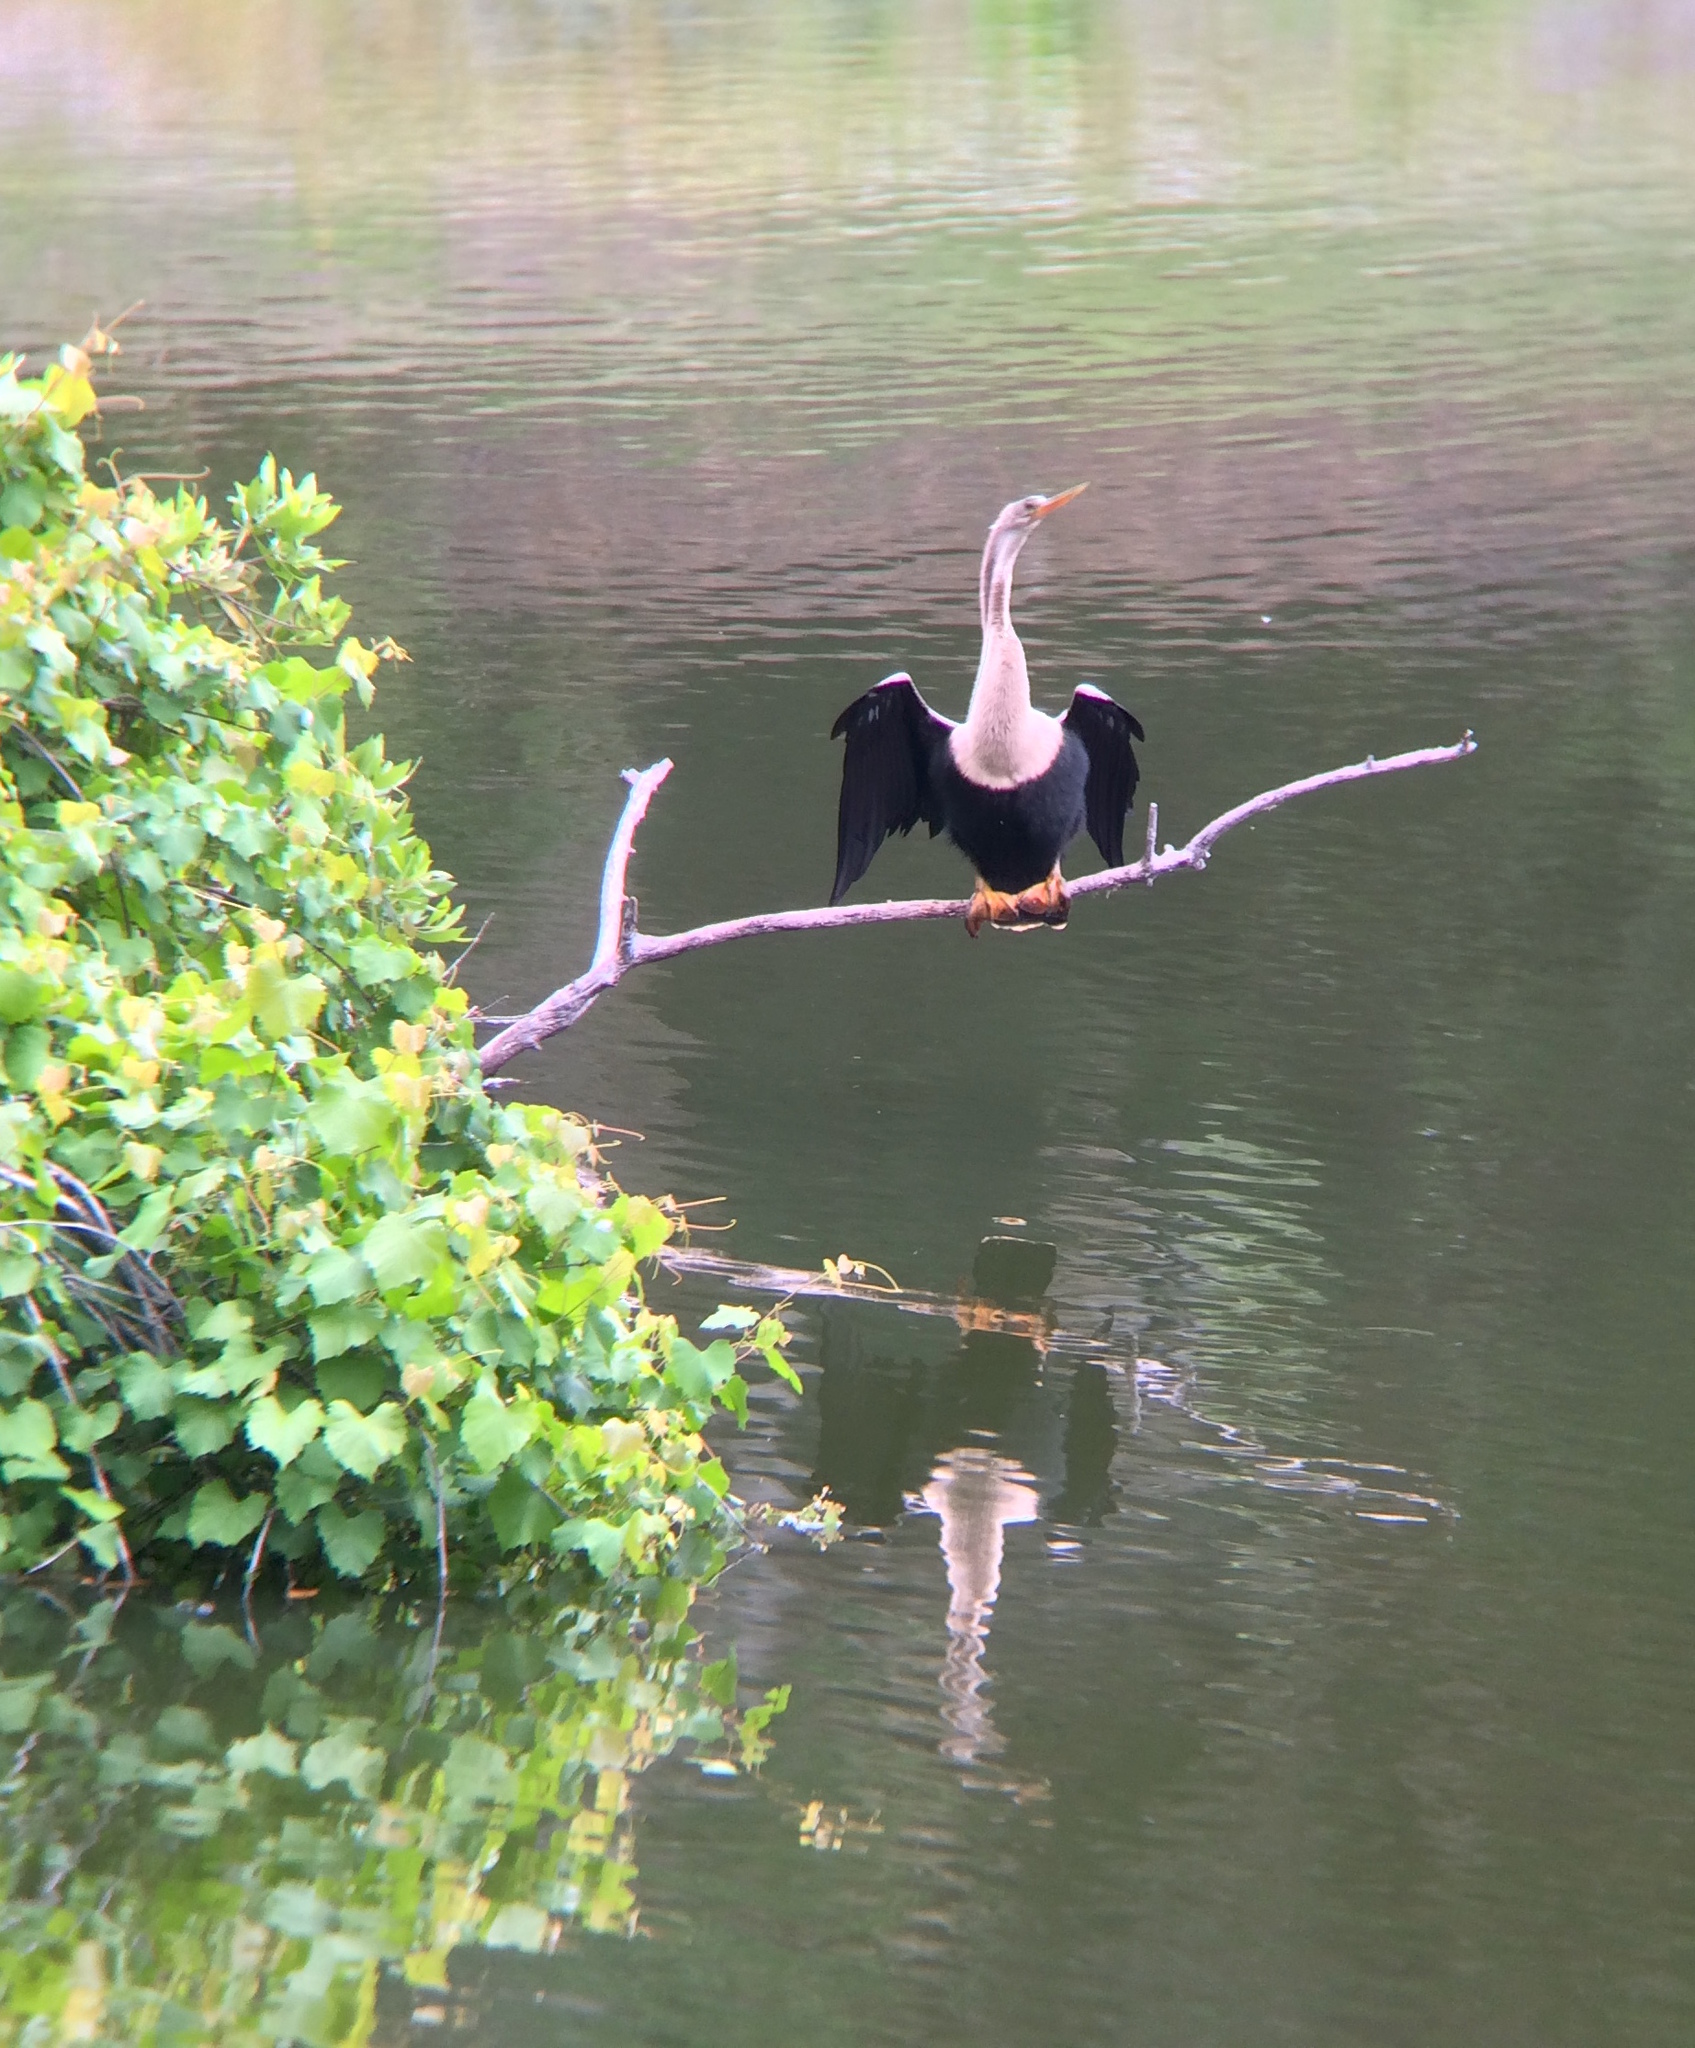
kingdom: Animalia
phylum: Chordata
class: Aves
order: Suliformes
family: Anhingidae
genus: Anhinga
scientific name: Anhinga anhinga
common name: Anhinga
